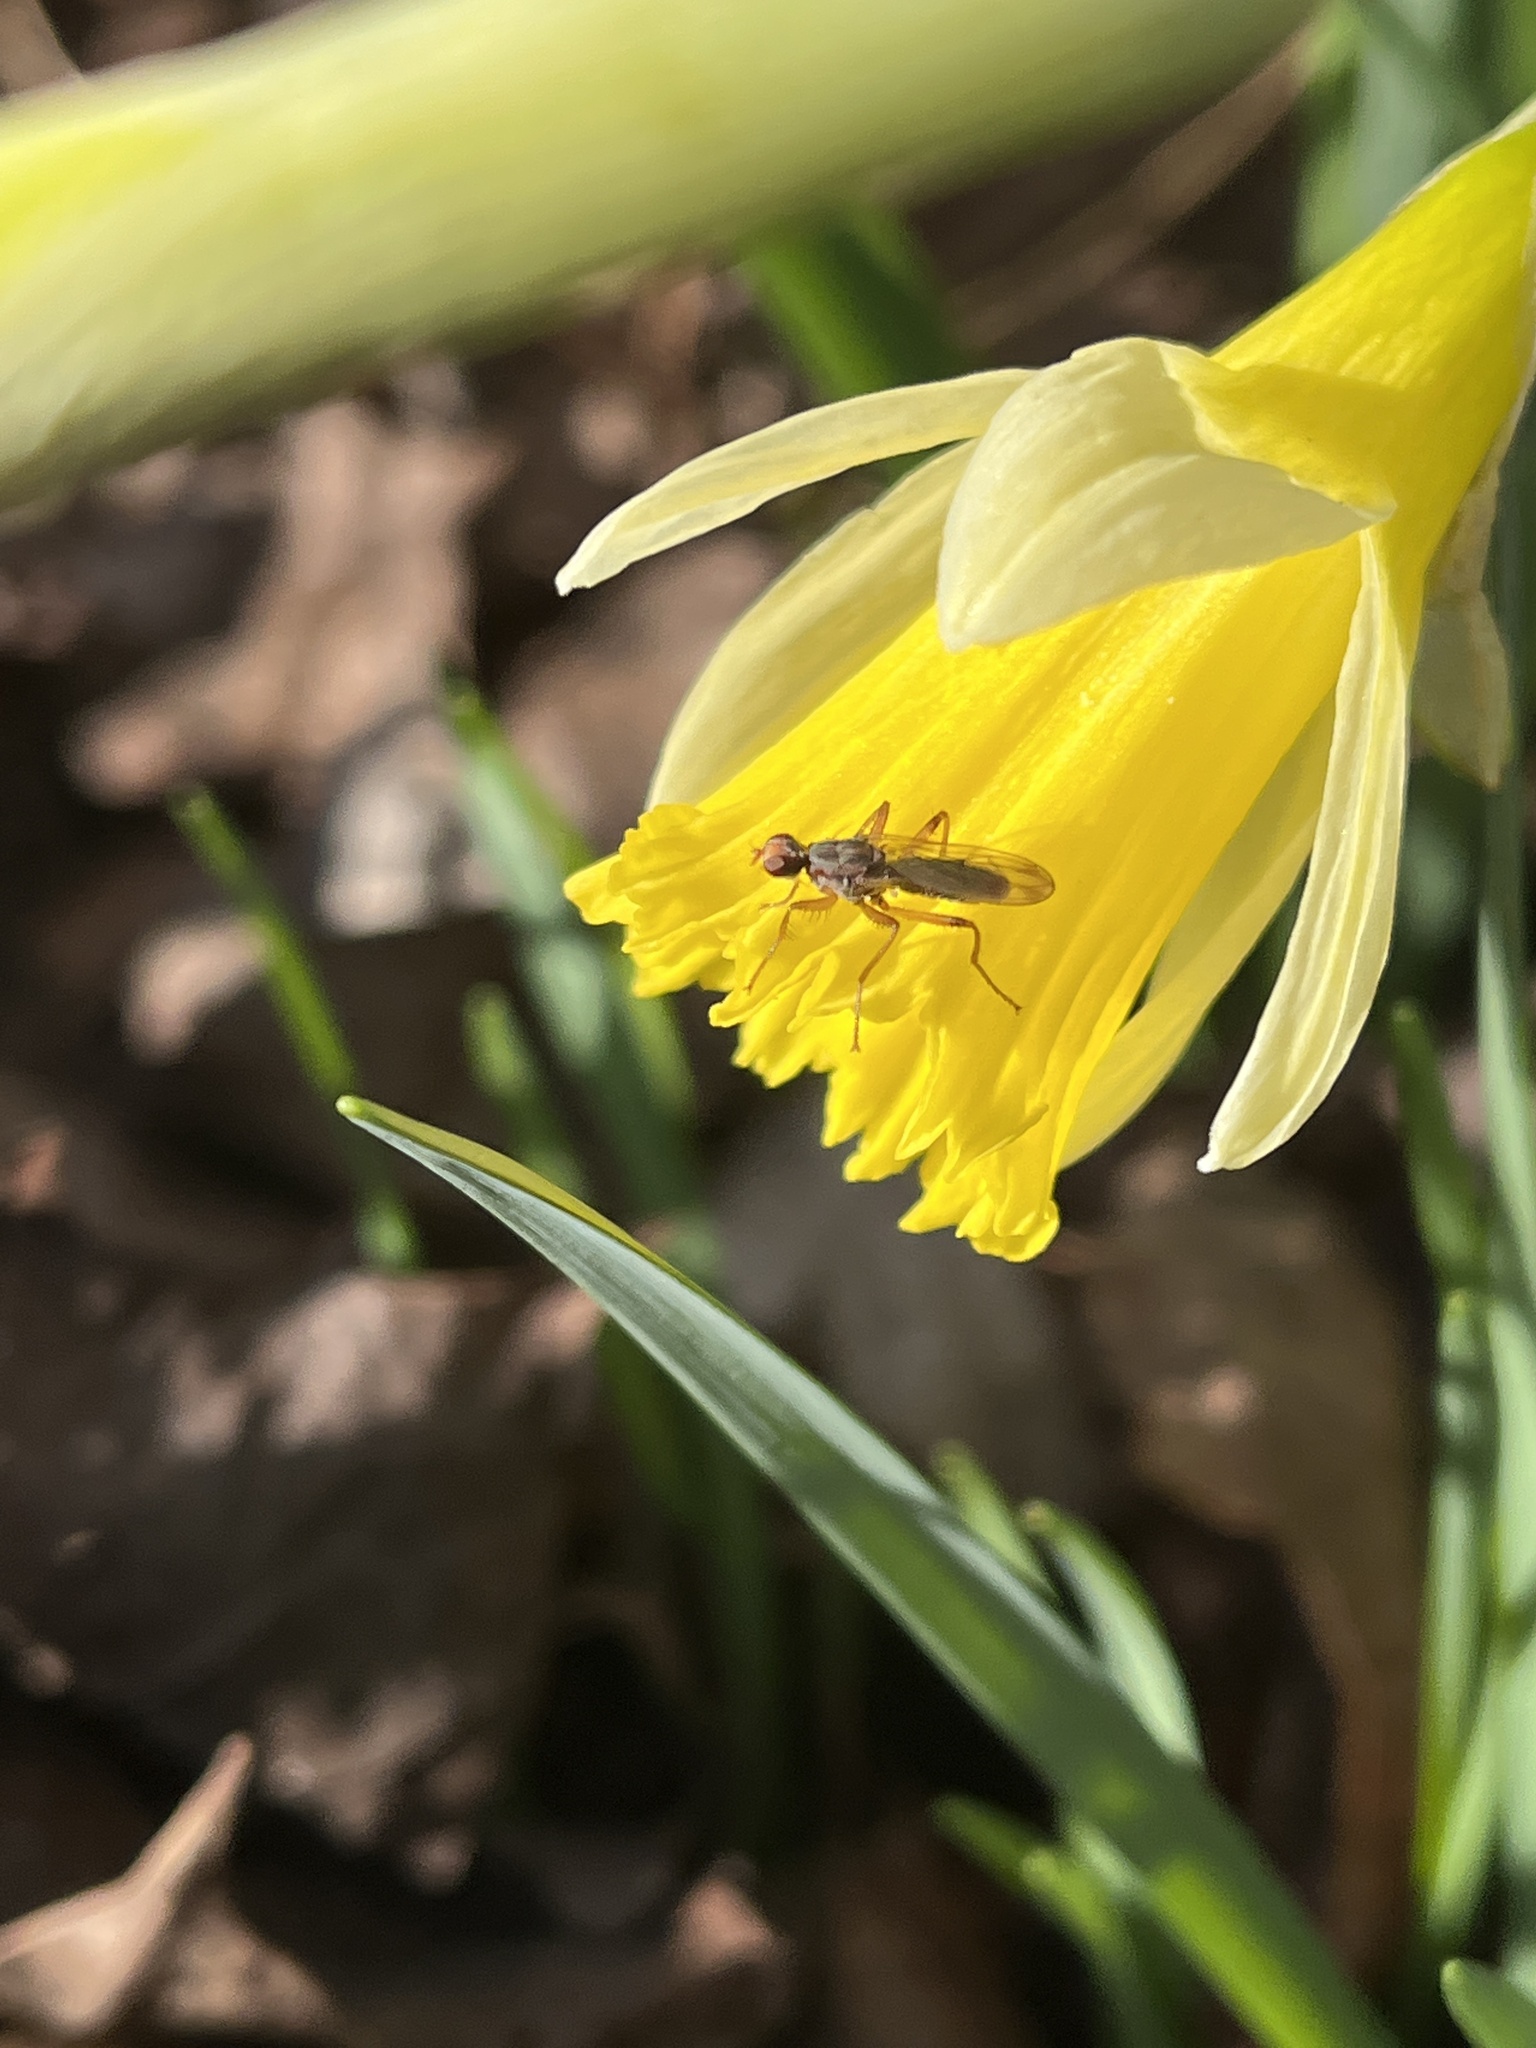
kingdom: Animalia
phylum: Arthropoda
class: Insecta
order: Diptera
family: Scathophagidae
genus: Norellia
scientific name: Norellia spinipes
